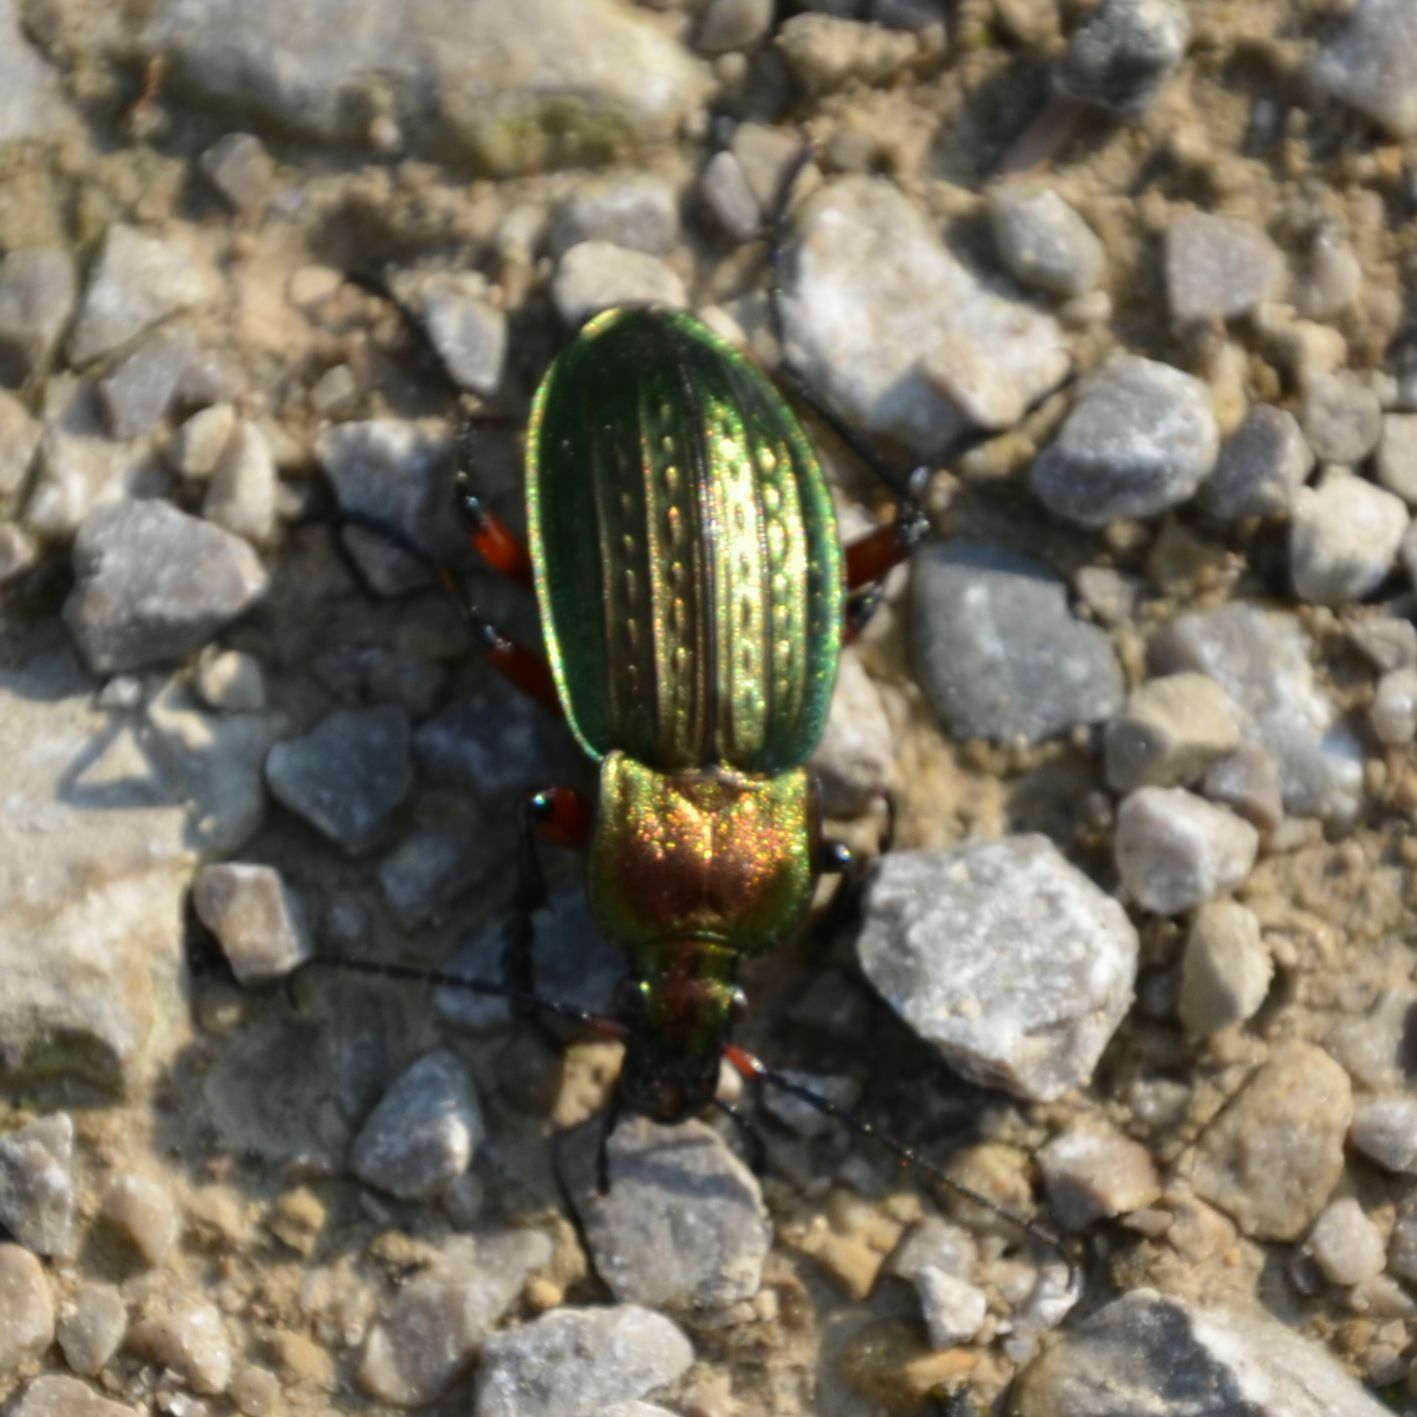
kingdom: Animalia
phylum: Arthropoda
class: Insecta
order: Coleoptera
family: Carabidae
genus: Carabus
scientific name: Carabus cancellatus
